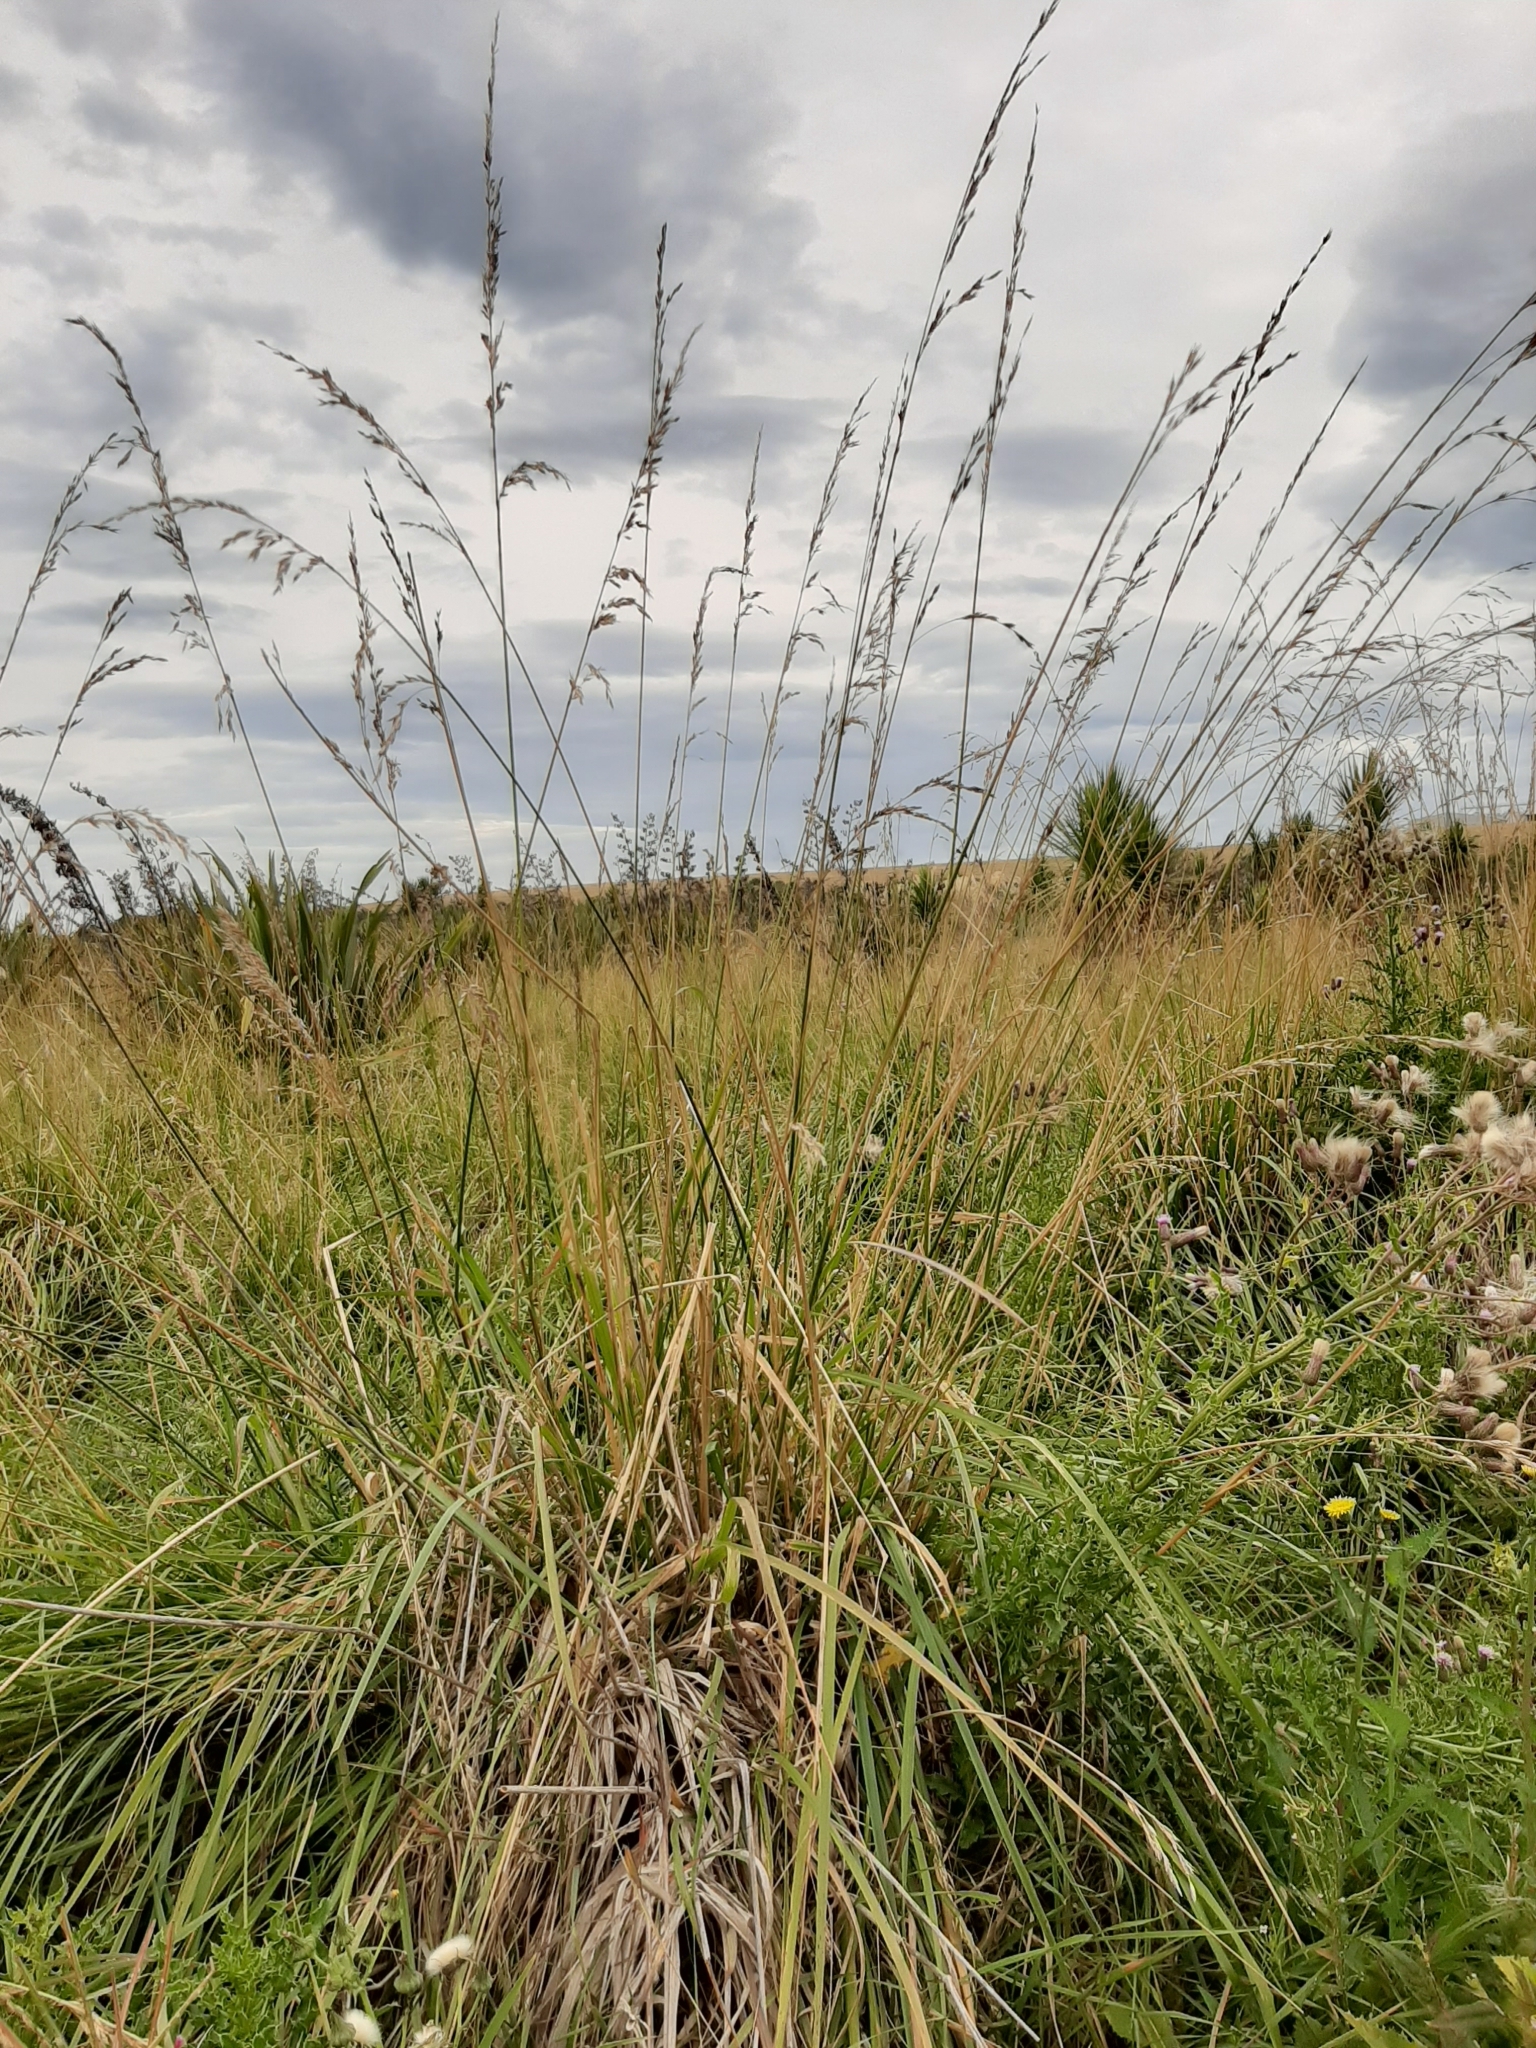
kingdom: Plantae
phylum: Tracheophyta
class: Liliopsida
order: Poales
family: Poaceae
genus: Arrhenatherum
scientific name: Arrhenatherum elatius
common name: Tall oatgrass
